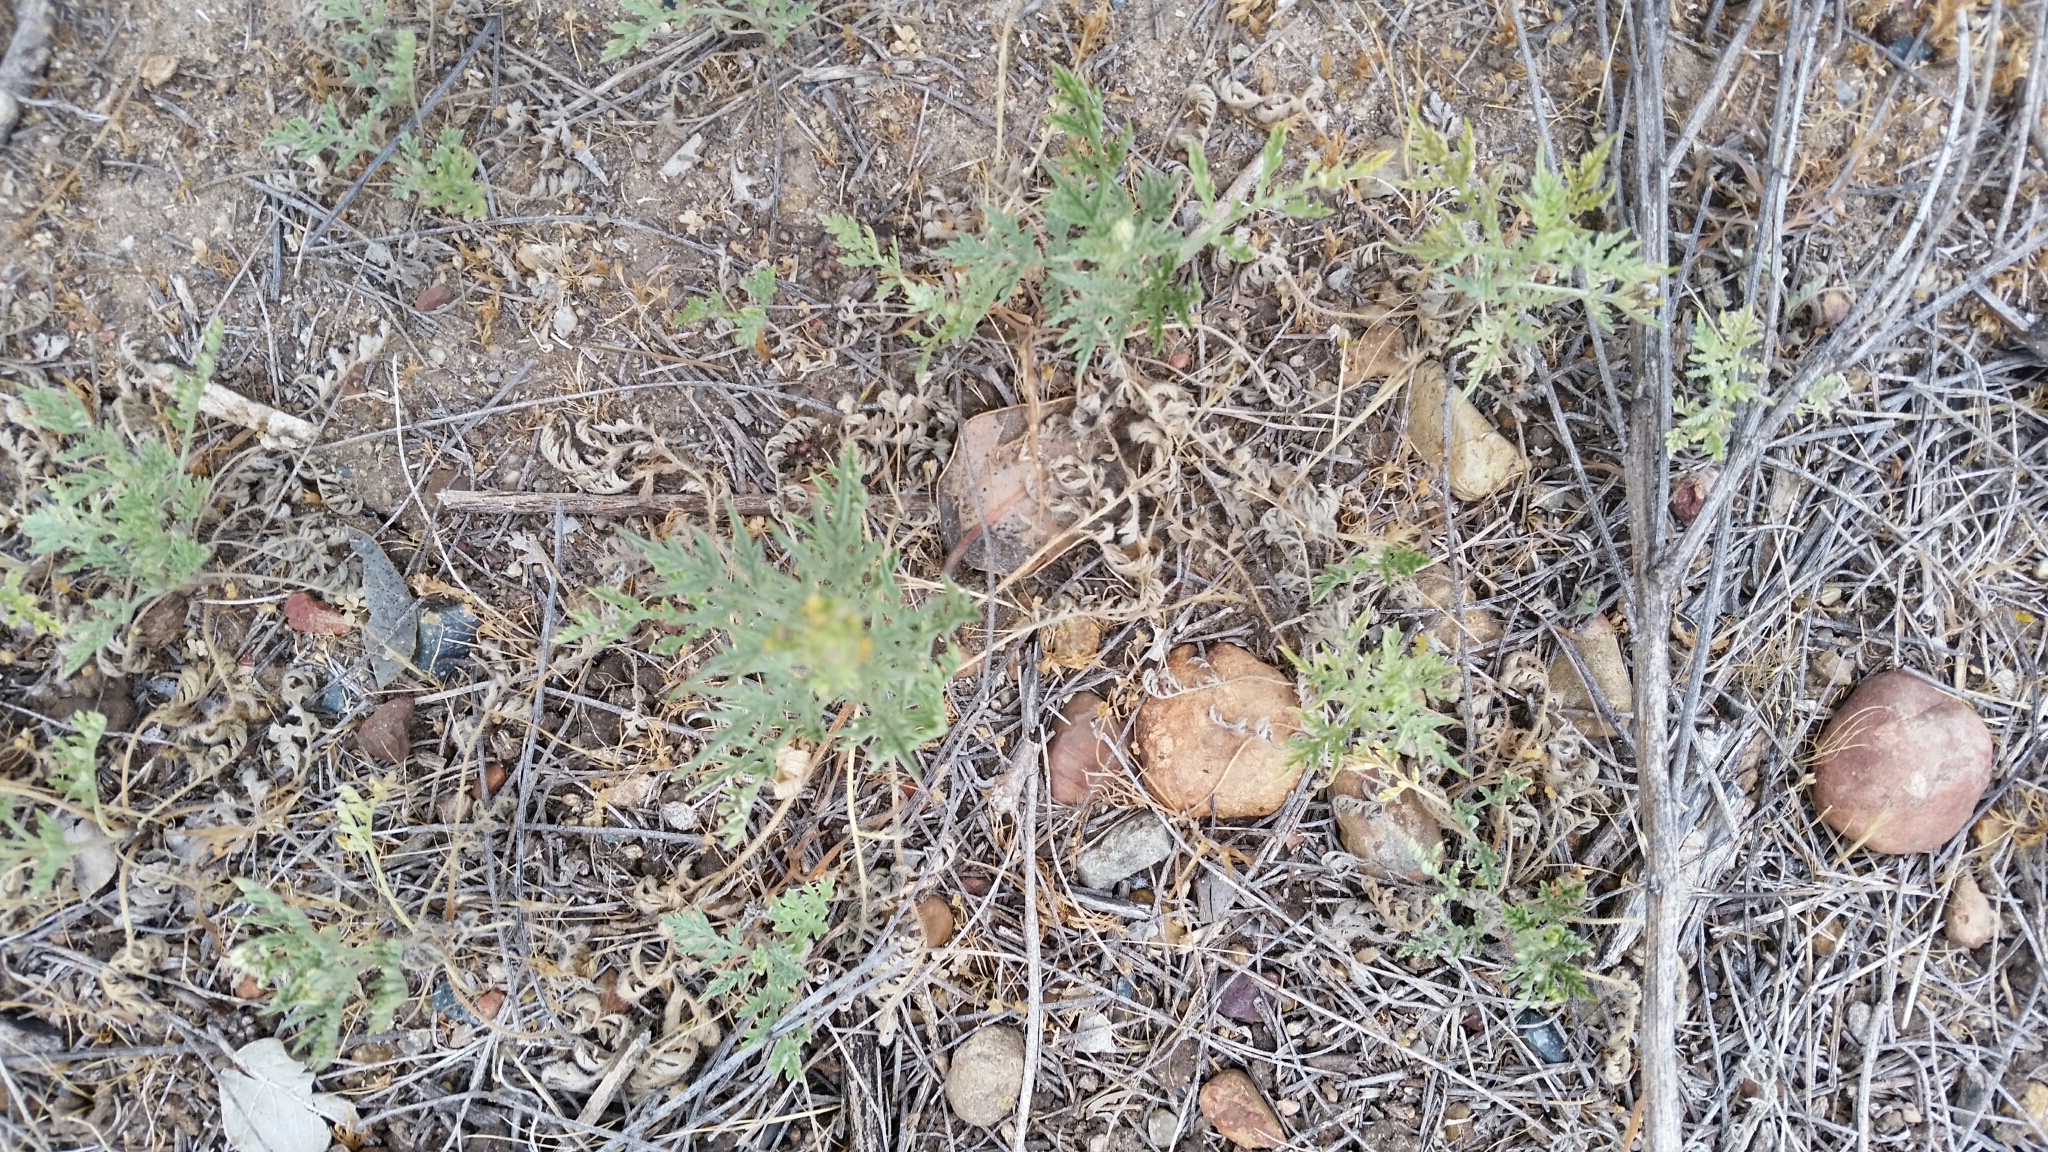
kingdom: Plantae
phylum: Tracheophyta
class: Magnoliopsida
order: Asterales
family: Asteraceae
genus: Ambrosia
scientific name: Ambrosia psilostachya
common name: Perennial ragweed
